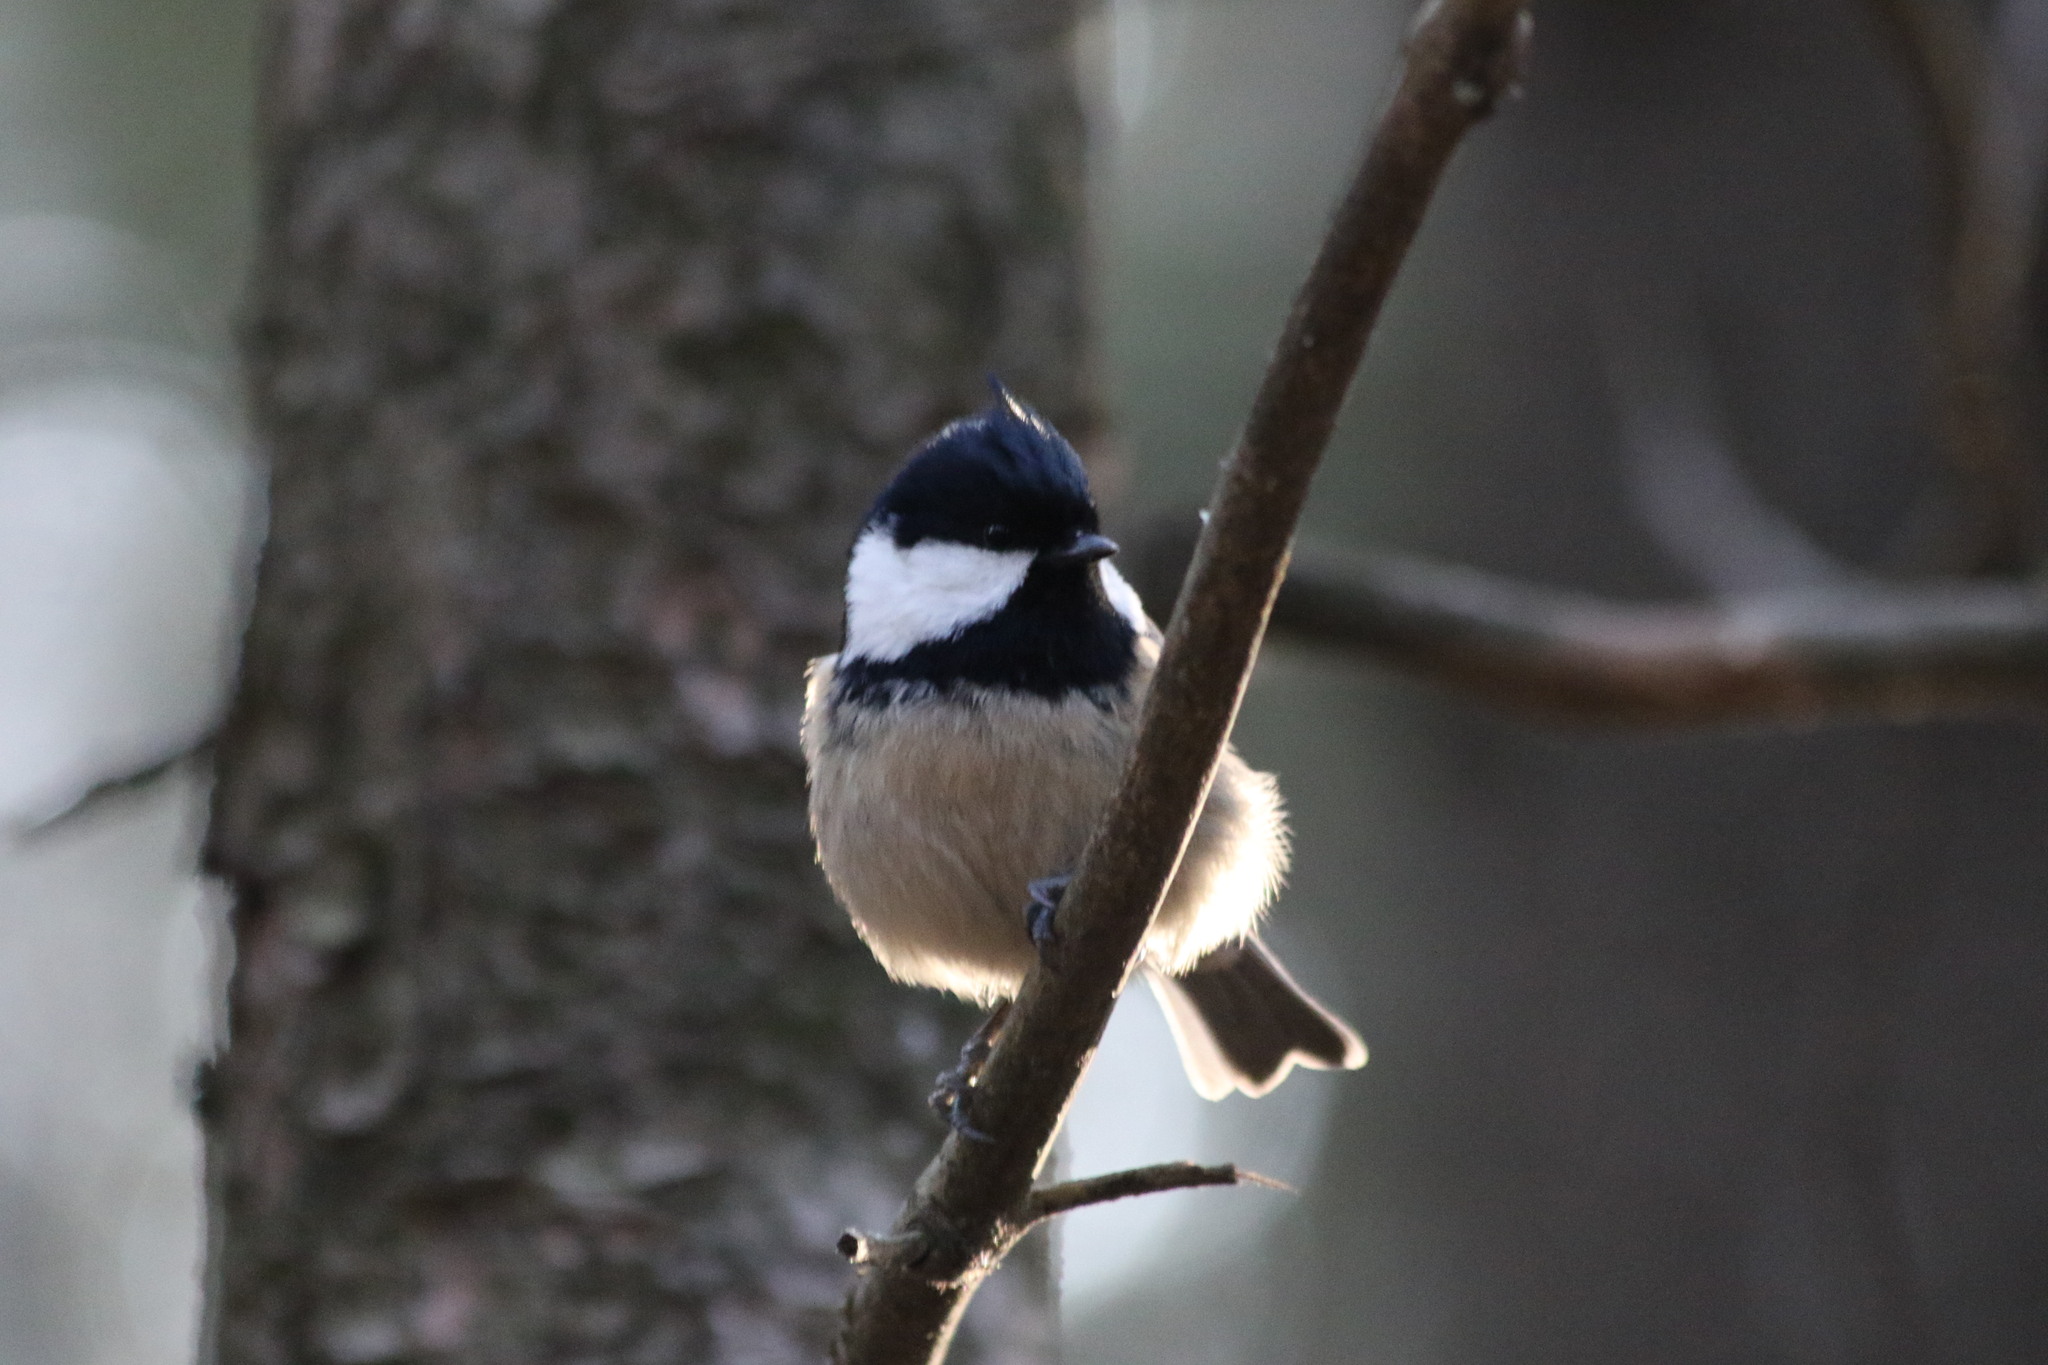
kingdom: Animalia
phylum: Chordata
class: Aves
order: Passeriformes
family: Paridae
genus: Periparus
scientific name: Periparus ater
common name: Coal tit
